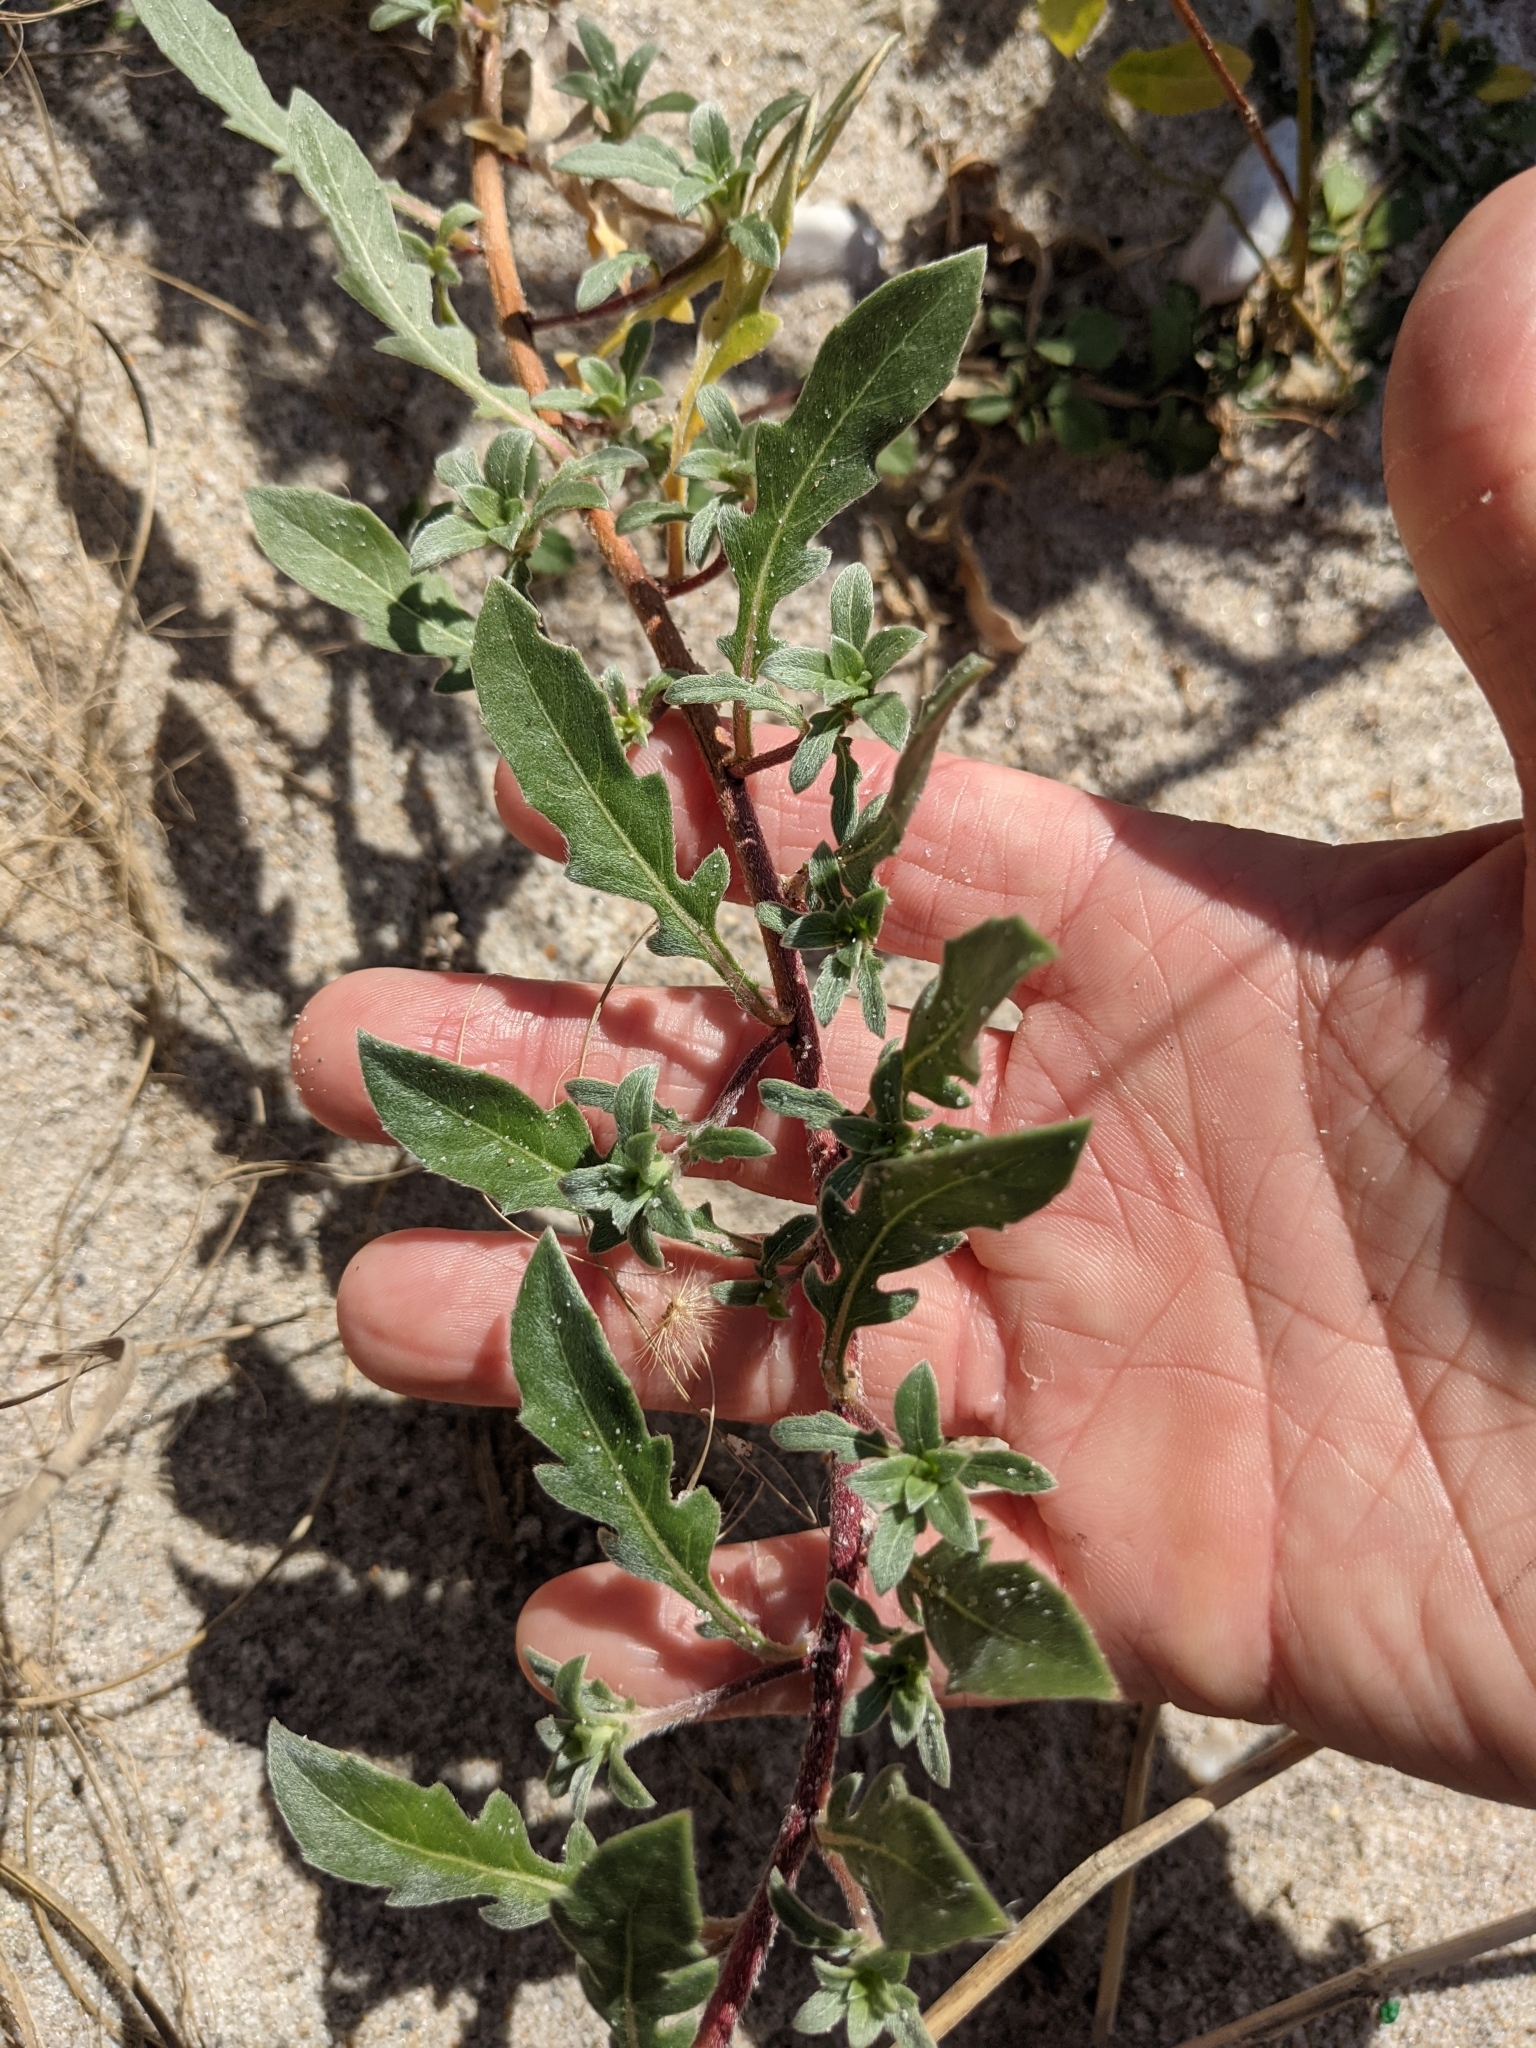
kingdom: Plantae
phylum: Tracheophyta
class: Magnoliopsida
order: Myrtales
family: Onagraceae
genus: Oenothera
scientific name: Oenothera humifusa
